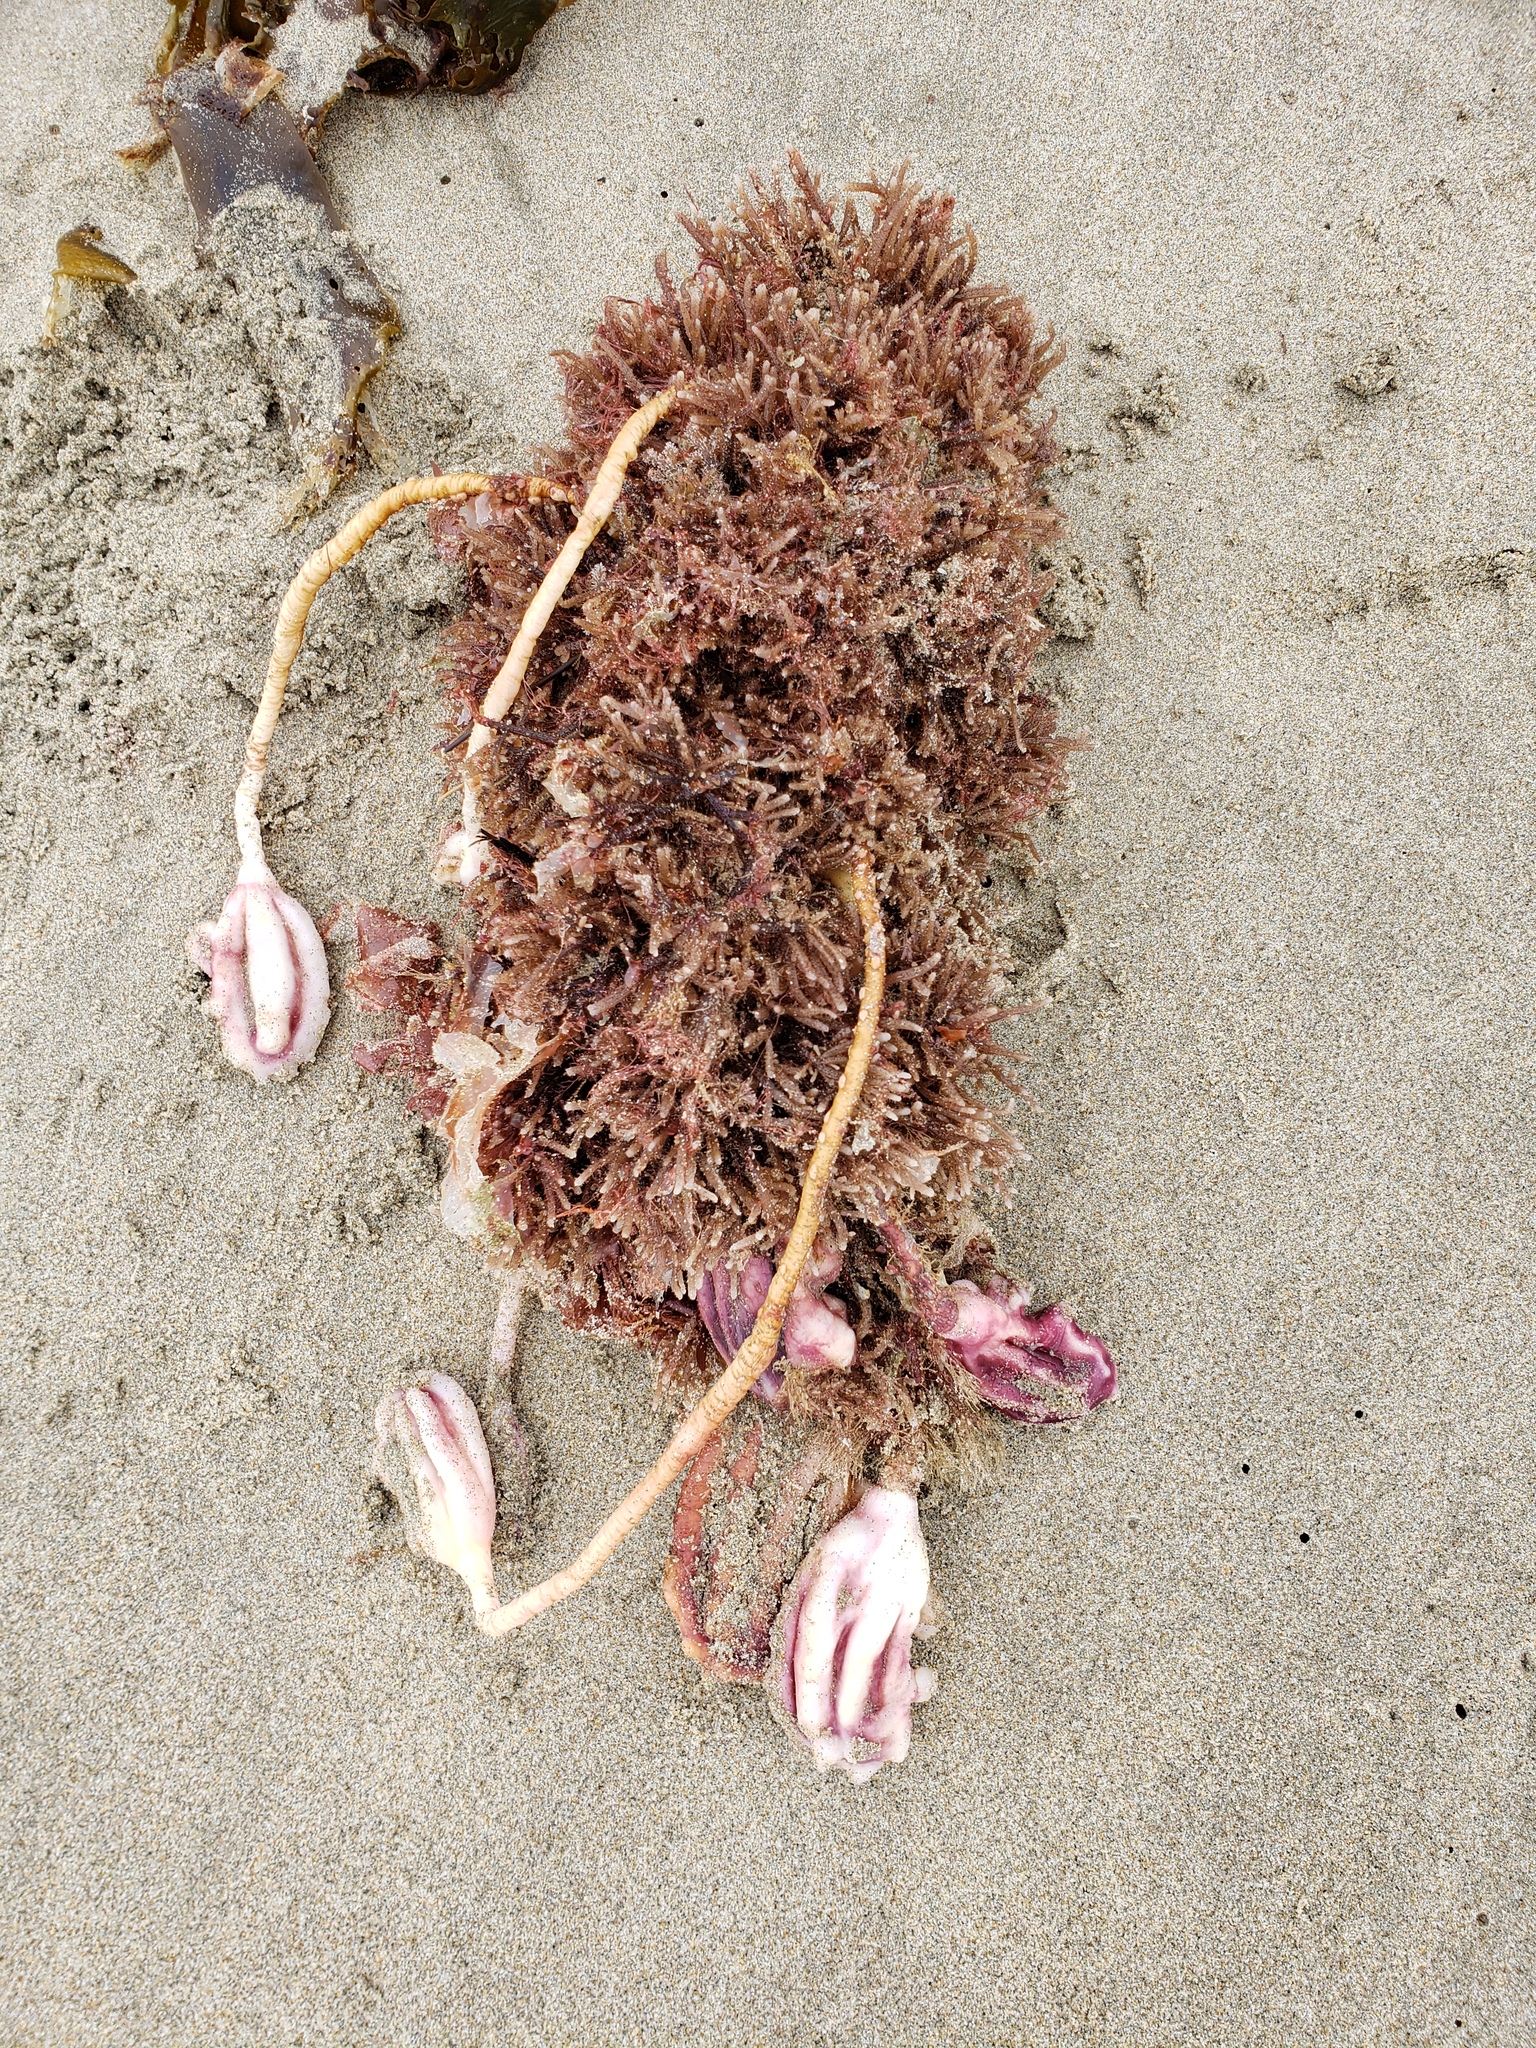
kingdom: Animalia
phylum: Chordata
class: Ascidiacea
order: Stolidobranchia
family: Pyuridae
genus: Pyura
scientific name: Pyura pachydermatina
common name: Sea tulip
